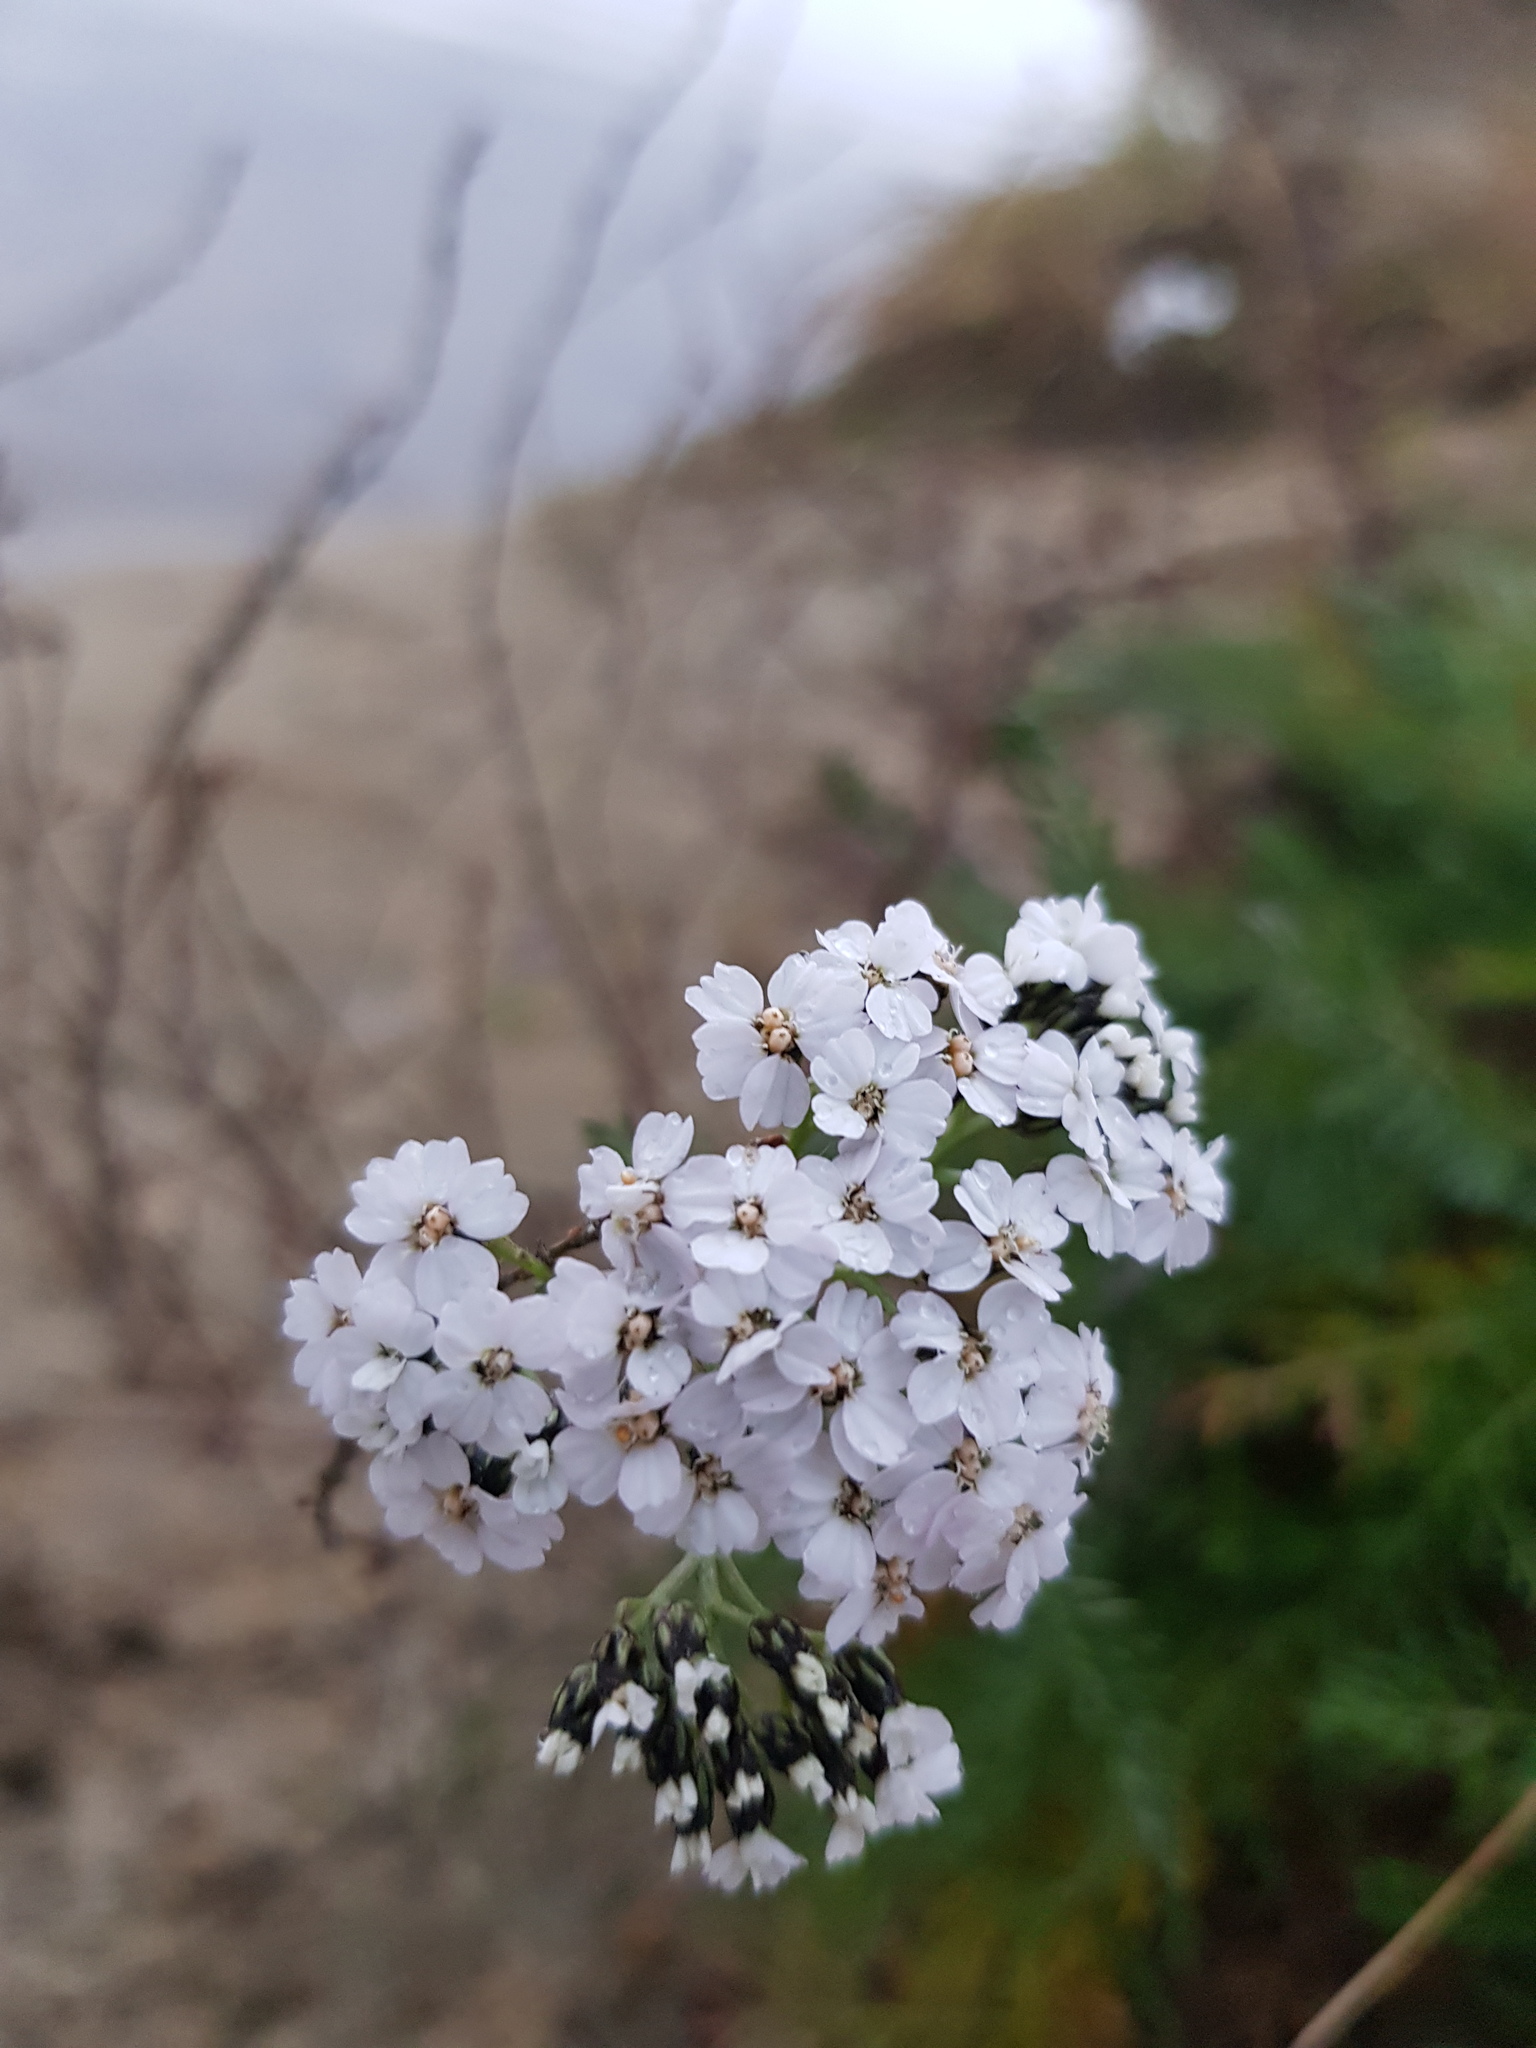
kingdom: Plantae
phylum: Tracheophyta
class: Magnoliopsida
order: Asterales
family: Asteraceae
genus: Achillea
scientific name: Achillea millefolium
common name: Yarrow
